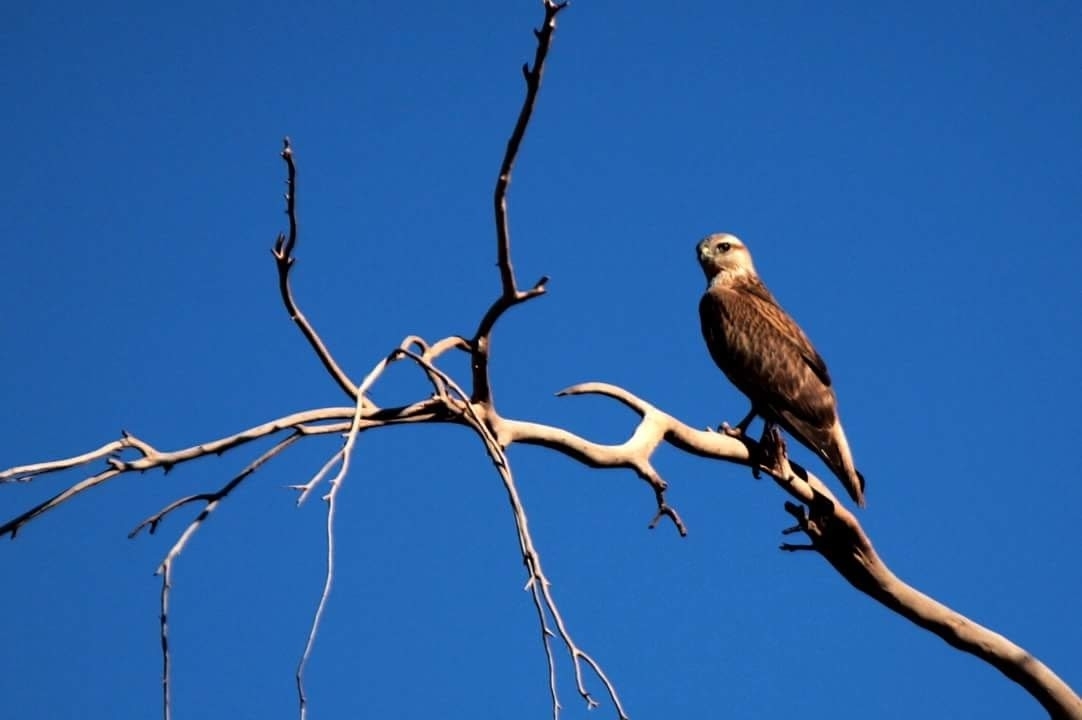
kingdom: Animalia
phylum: Chordata
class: Aves
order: Accipitriformes
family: Accipitridae
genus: Buteo
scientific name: Buteo buteo
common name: Common buzzard
